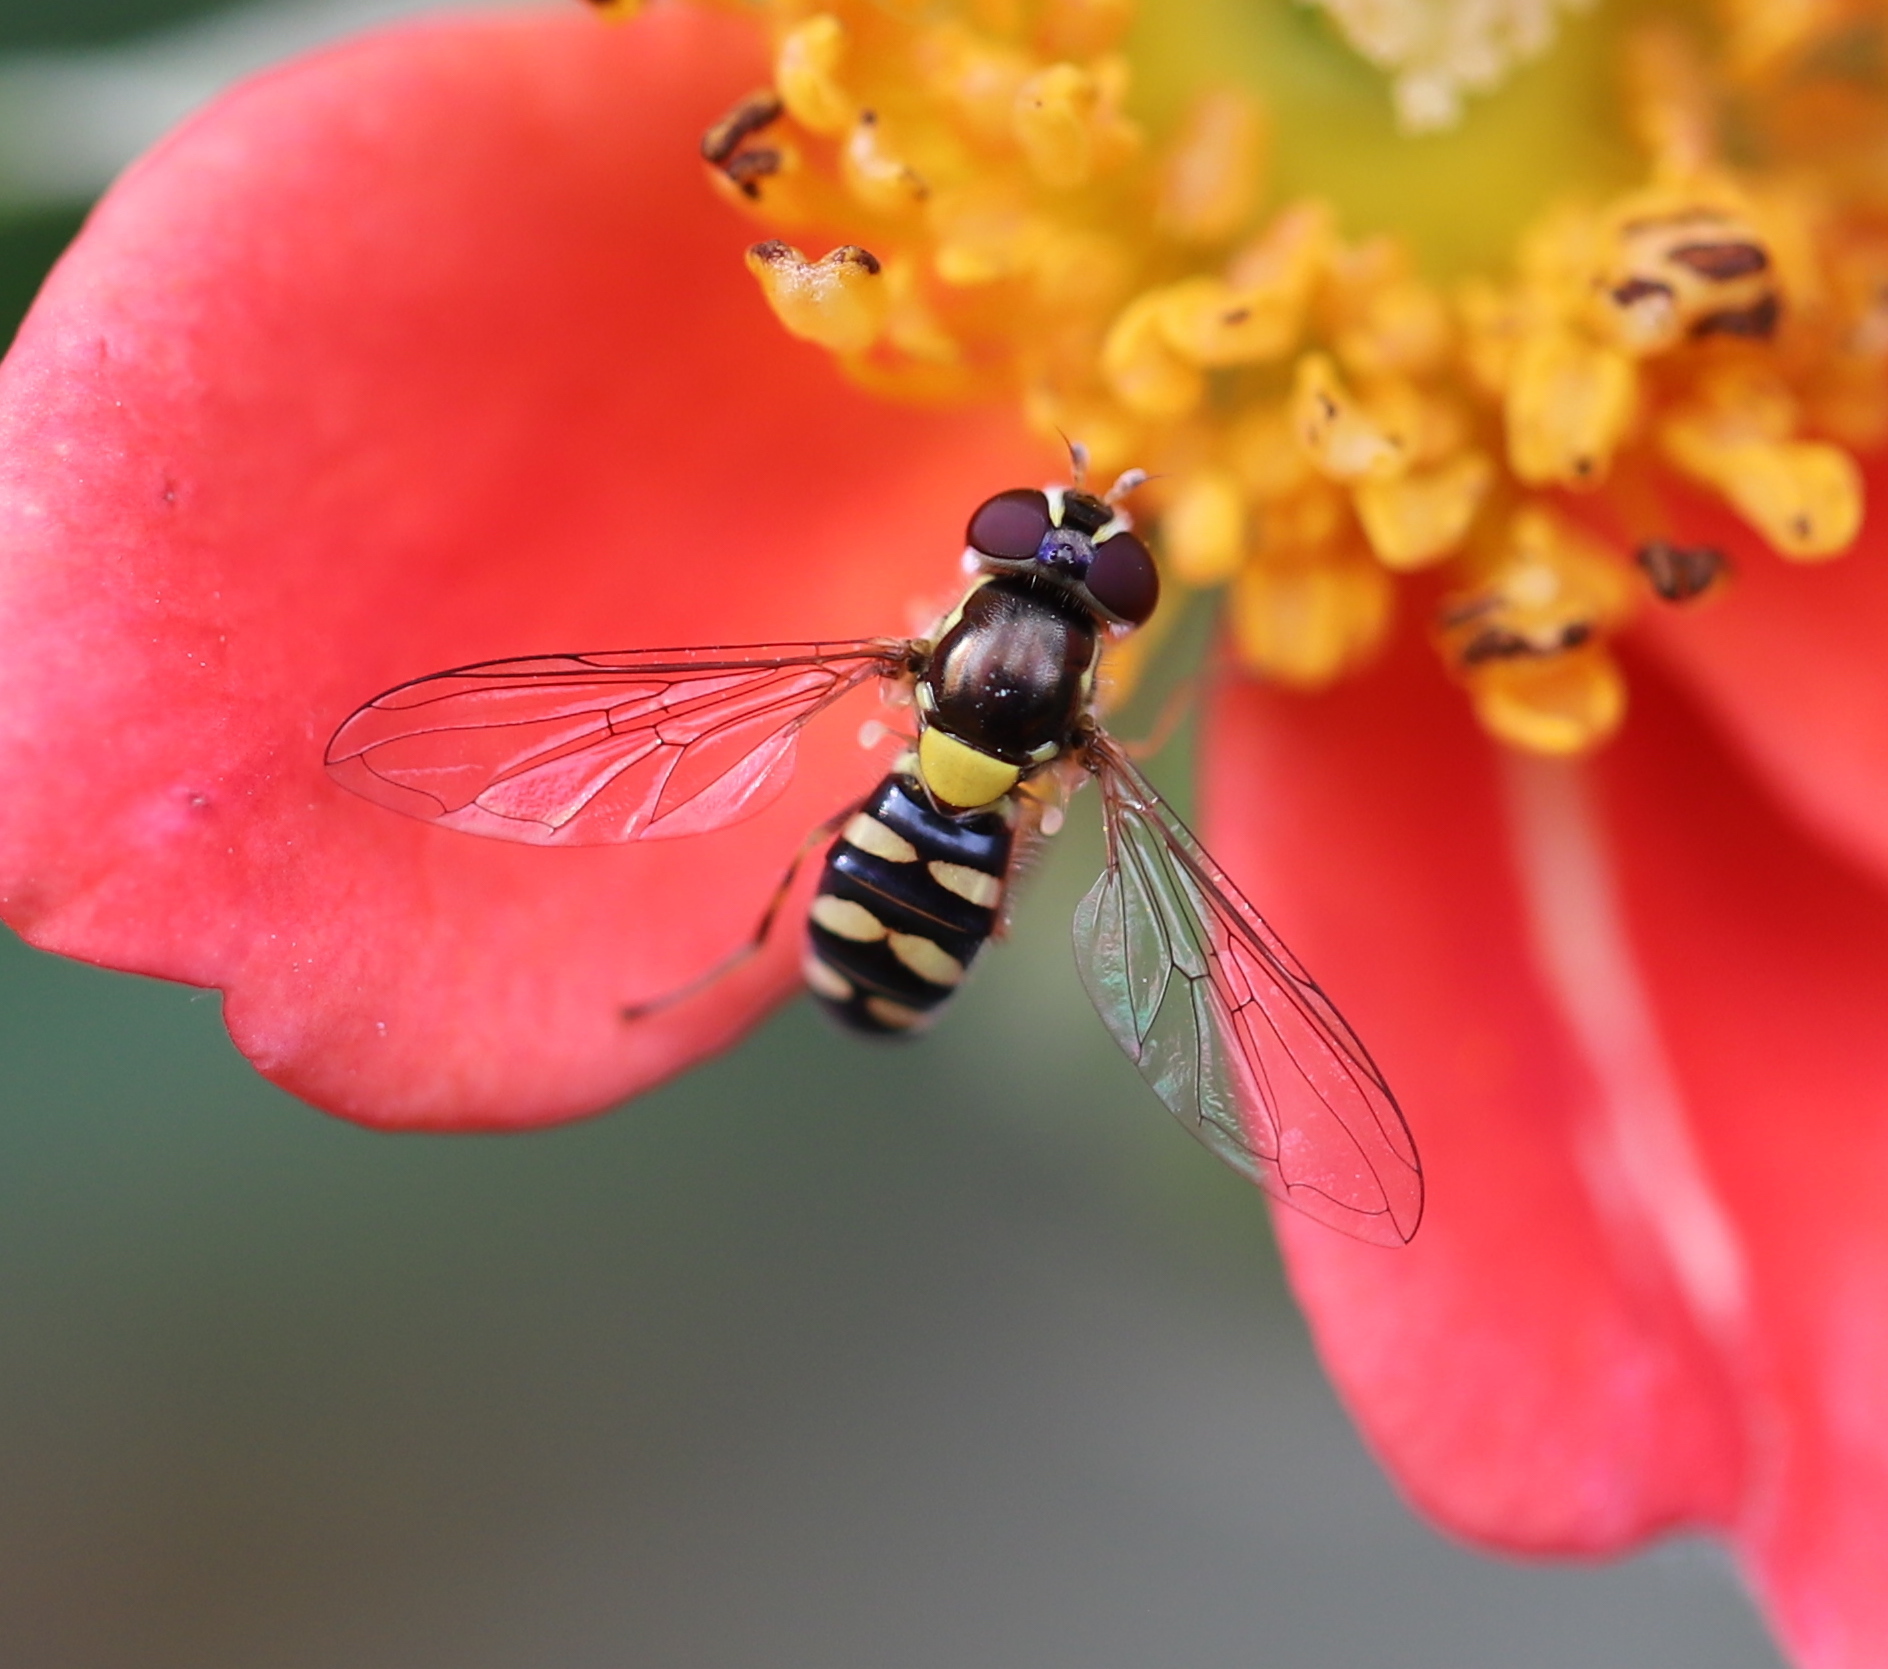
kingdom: Animalia
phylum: Arthropoda
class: Insecta
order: Diptera
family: Syrphidae
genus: Allograpta
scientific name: Allograpta hortensis
